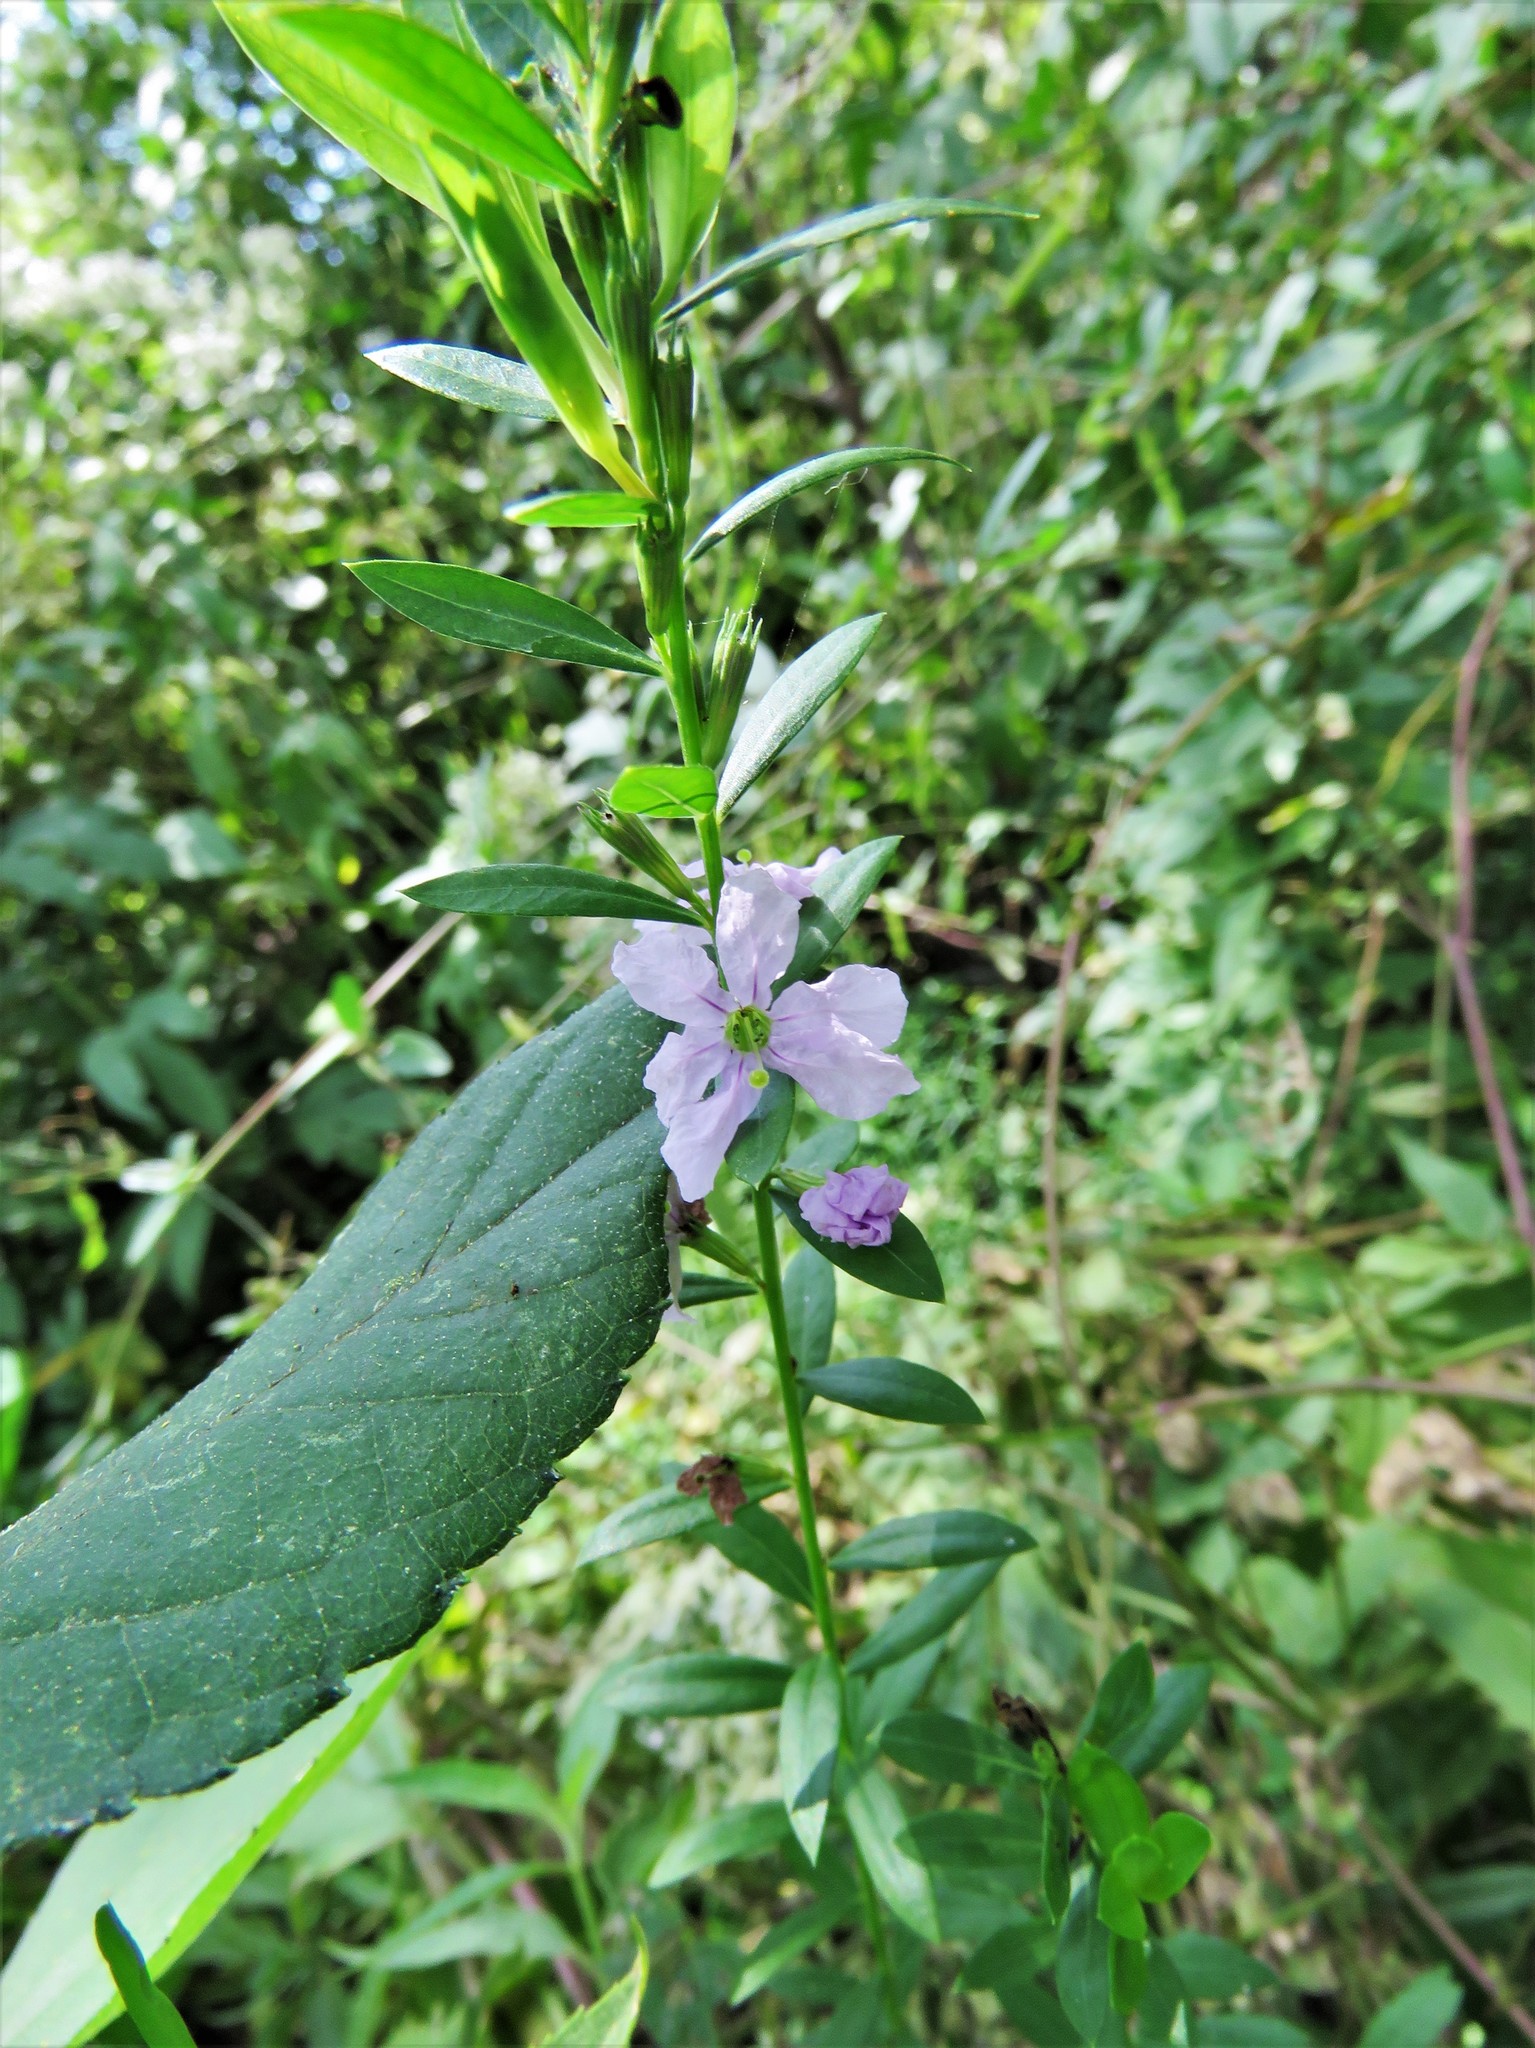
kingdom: Plantae
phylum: Tracheophyta
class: Magnoliopsida
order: Myrtales
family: Lythraceae
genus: Lythrum
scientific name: Lythrum alatum
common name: Winged loosestrife
